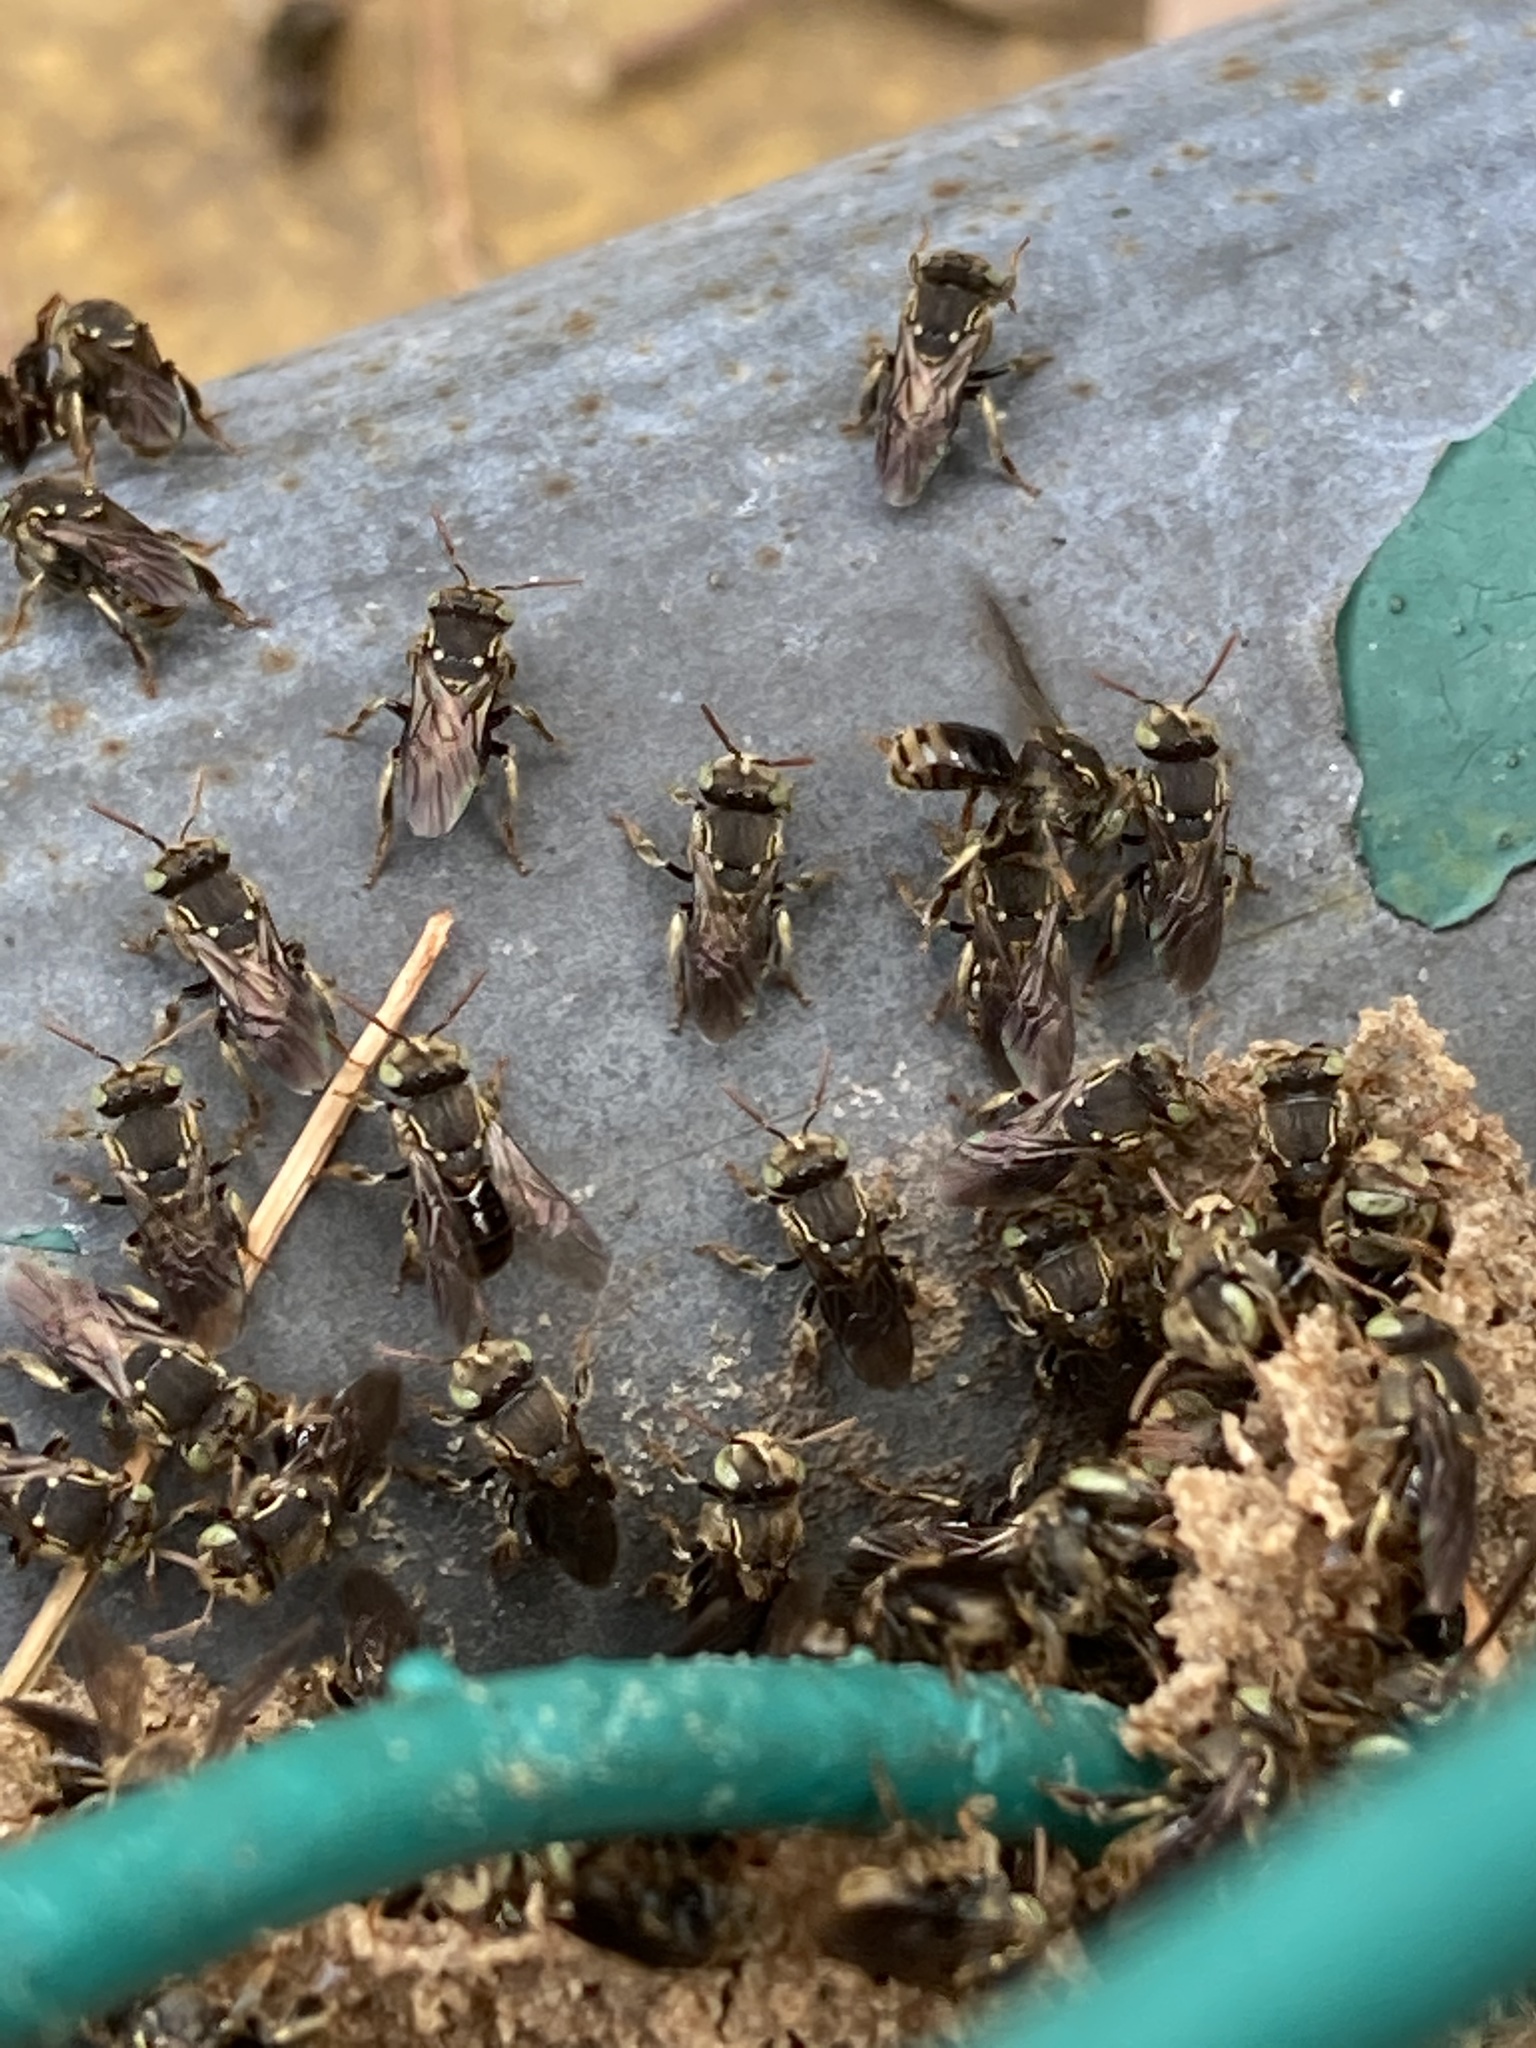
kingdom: Animalia
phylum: Arthropoda
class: Insecta
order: Hymenoptera
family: Apidae
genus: Nannotrigona
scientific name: Nannotrigona perilampoides
